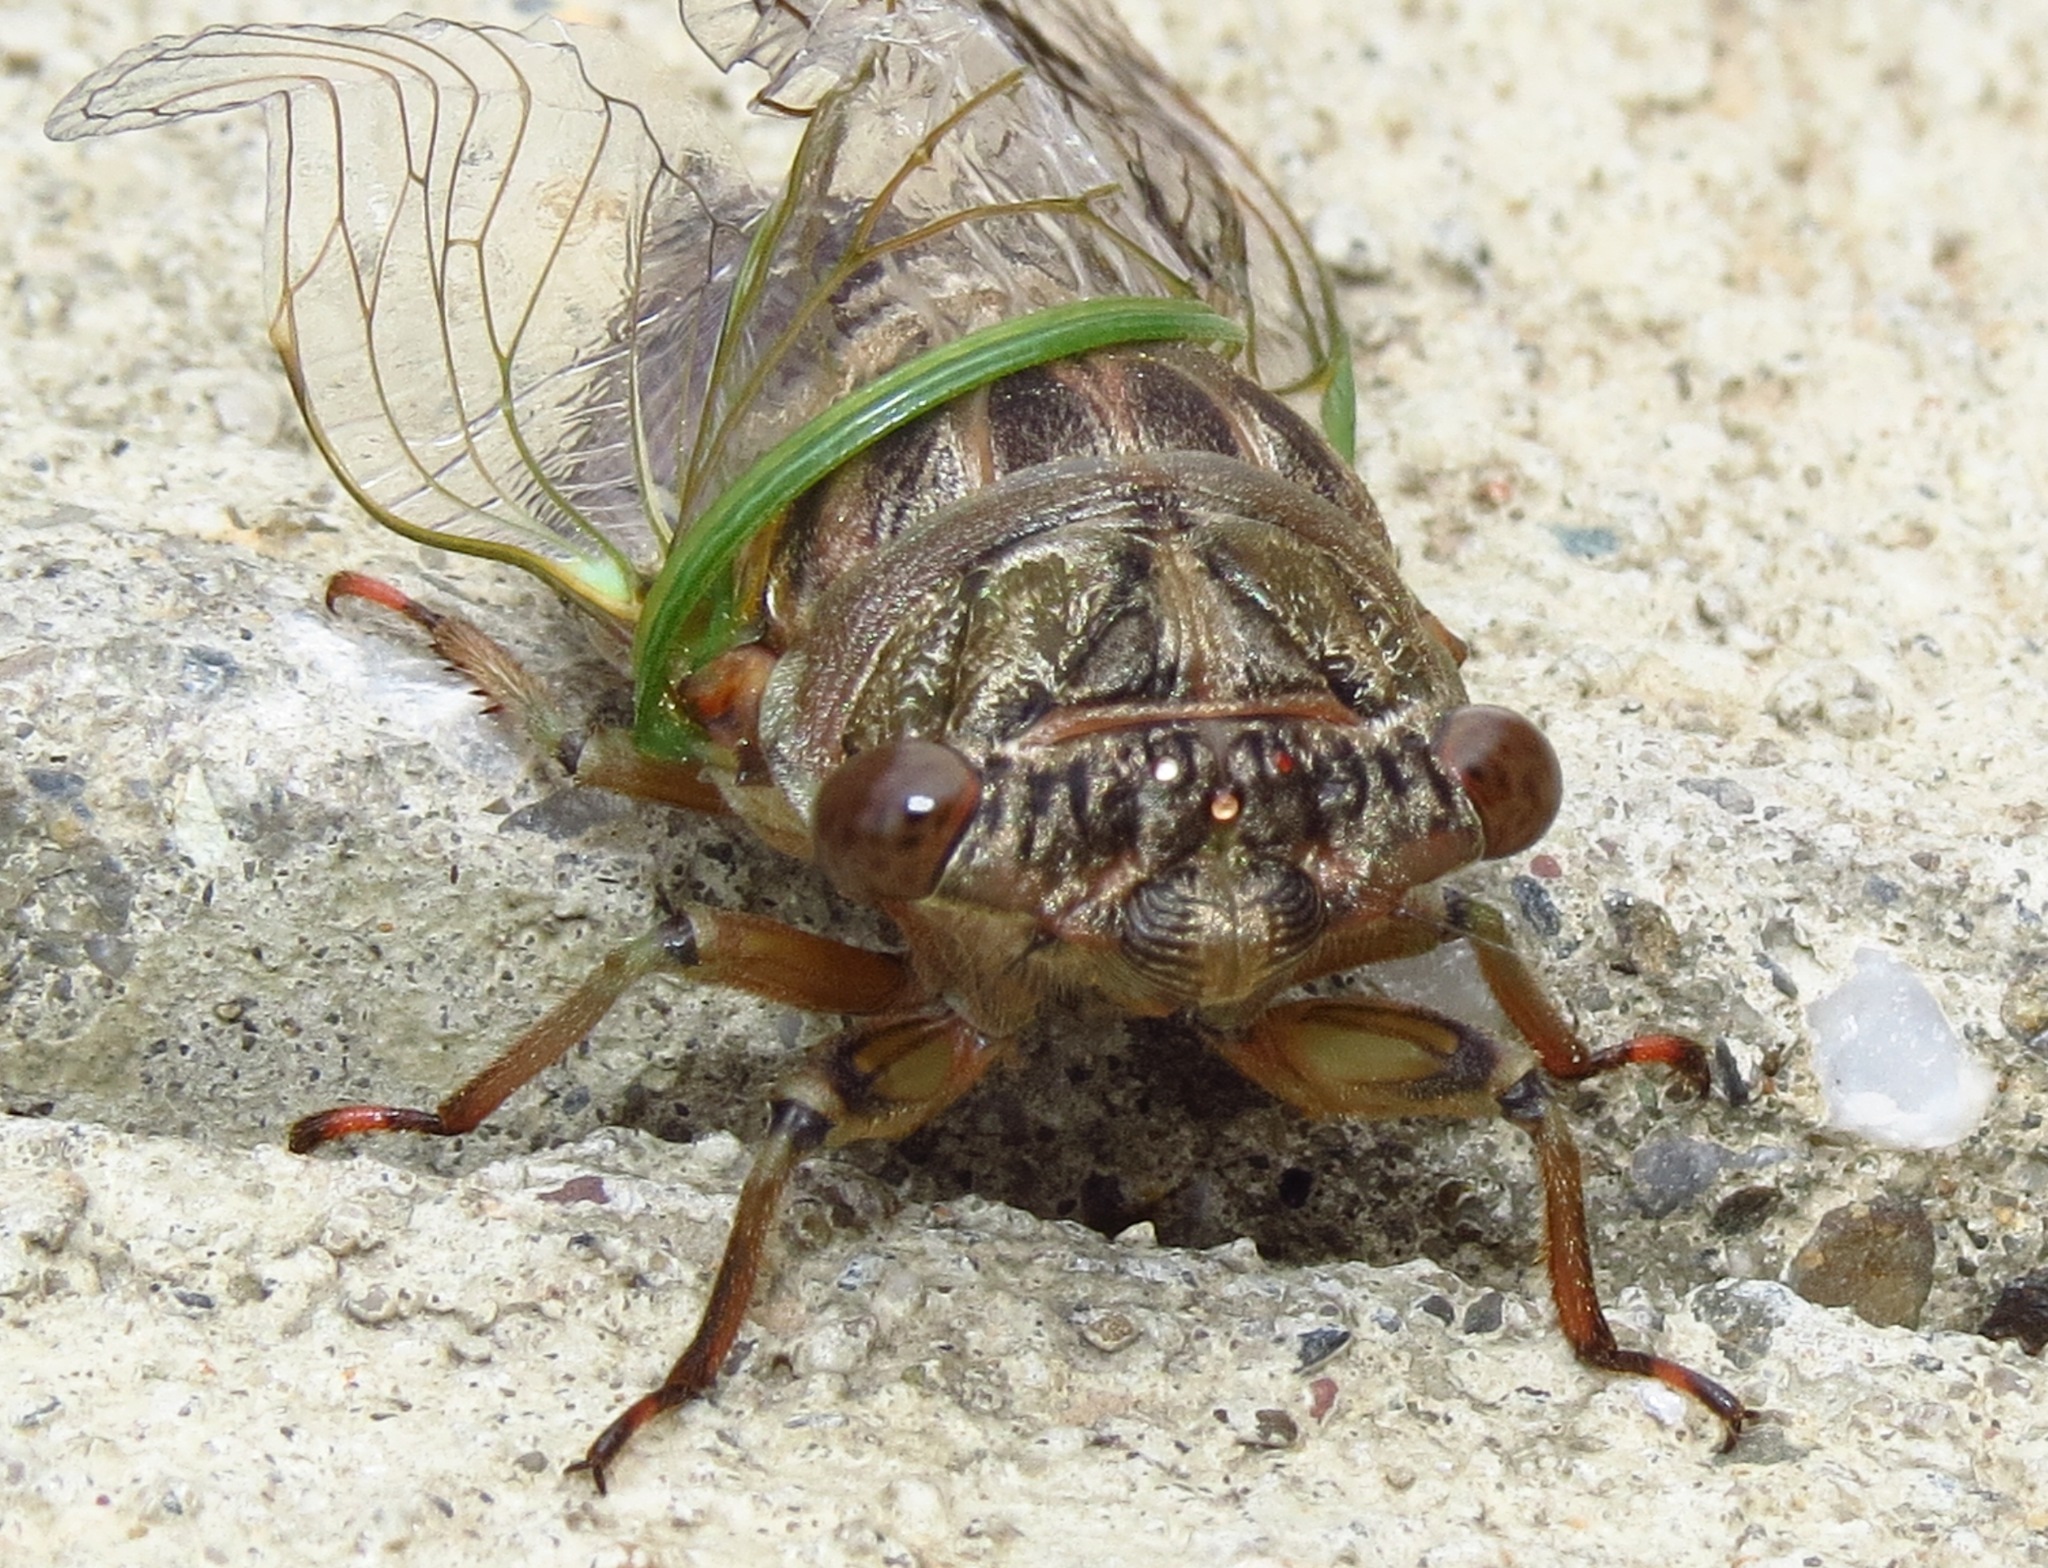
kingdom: Animalia
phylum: Arthropoda
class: Insecta
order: Hemiptera
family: Cicadidae
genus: Neotibicen
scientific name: Neotibicen canicularis
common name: God-day cicada
